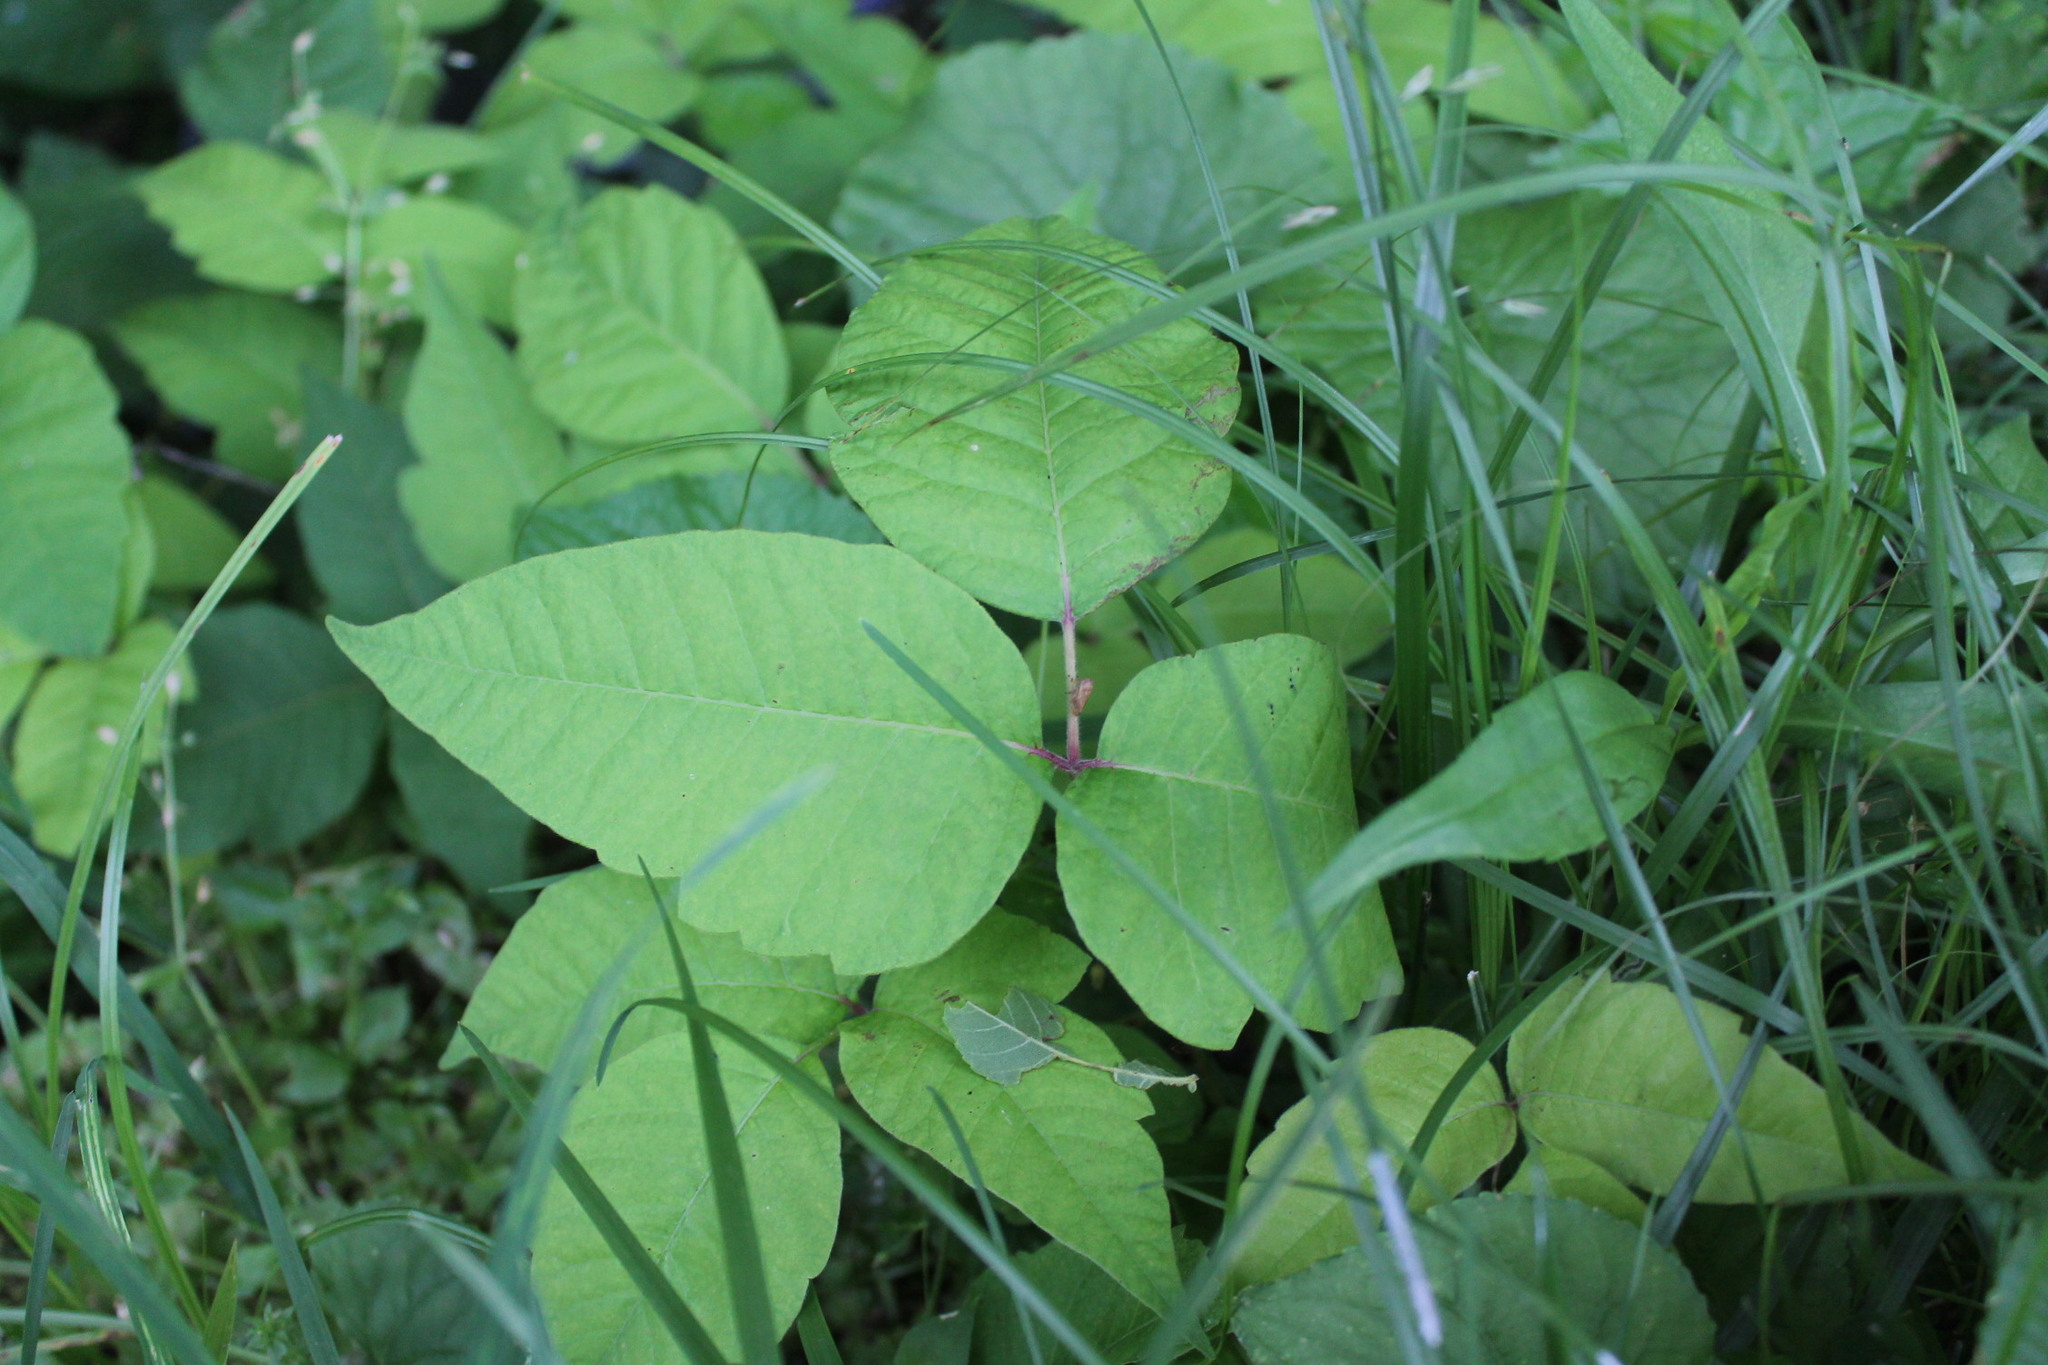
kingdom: Plantae
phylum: Tracheophyta
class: Magnoliopsida
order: Sapindales
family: Anacardiaceae
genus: Toxicodendron
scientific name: Toxicodendron radicans
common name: Poison ivy
